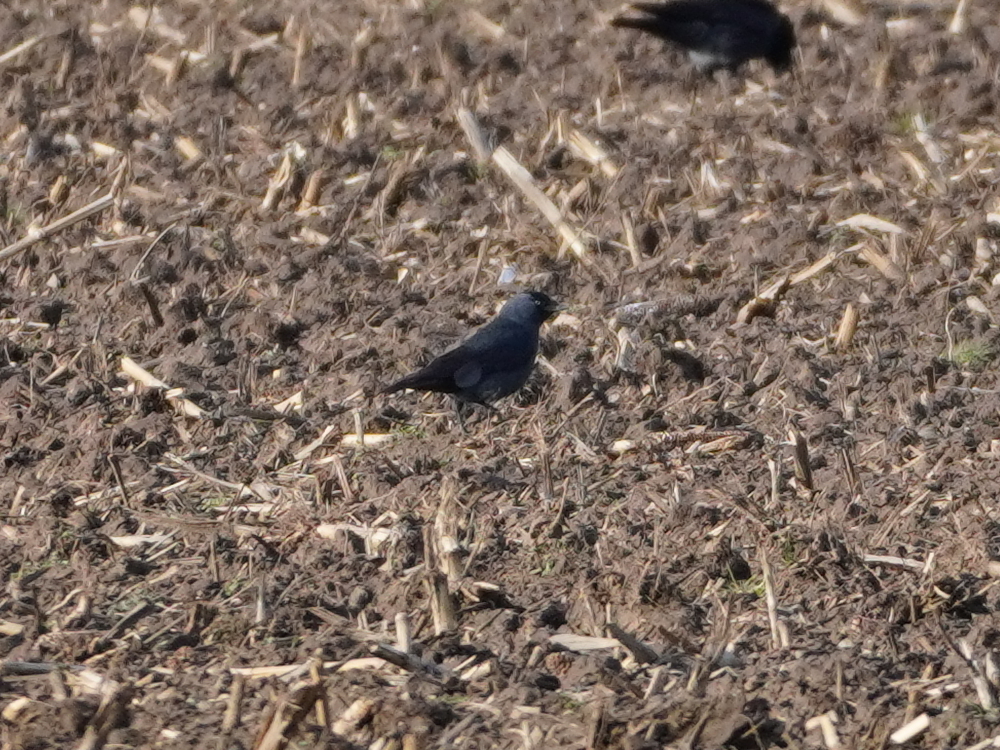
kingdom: Animalia
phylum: Chordata
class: Aves
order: Passeriformes
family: Corvidae
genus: Coloeus
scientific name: Coloeus monedula
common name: Western jackdaw
